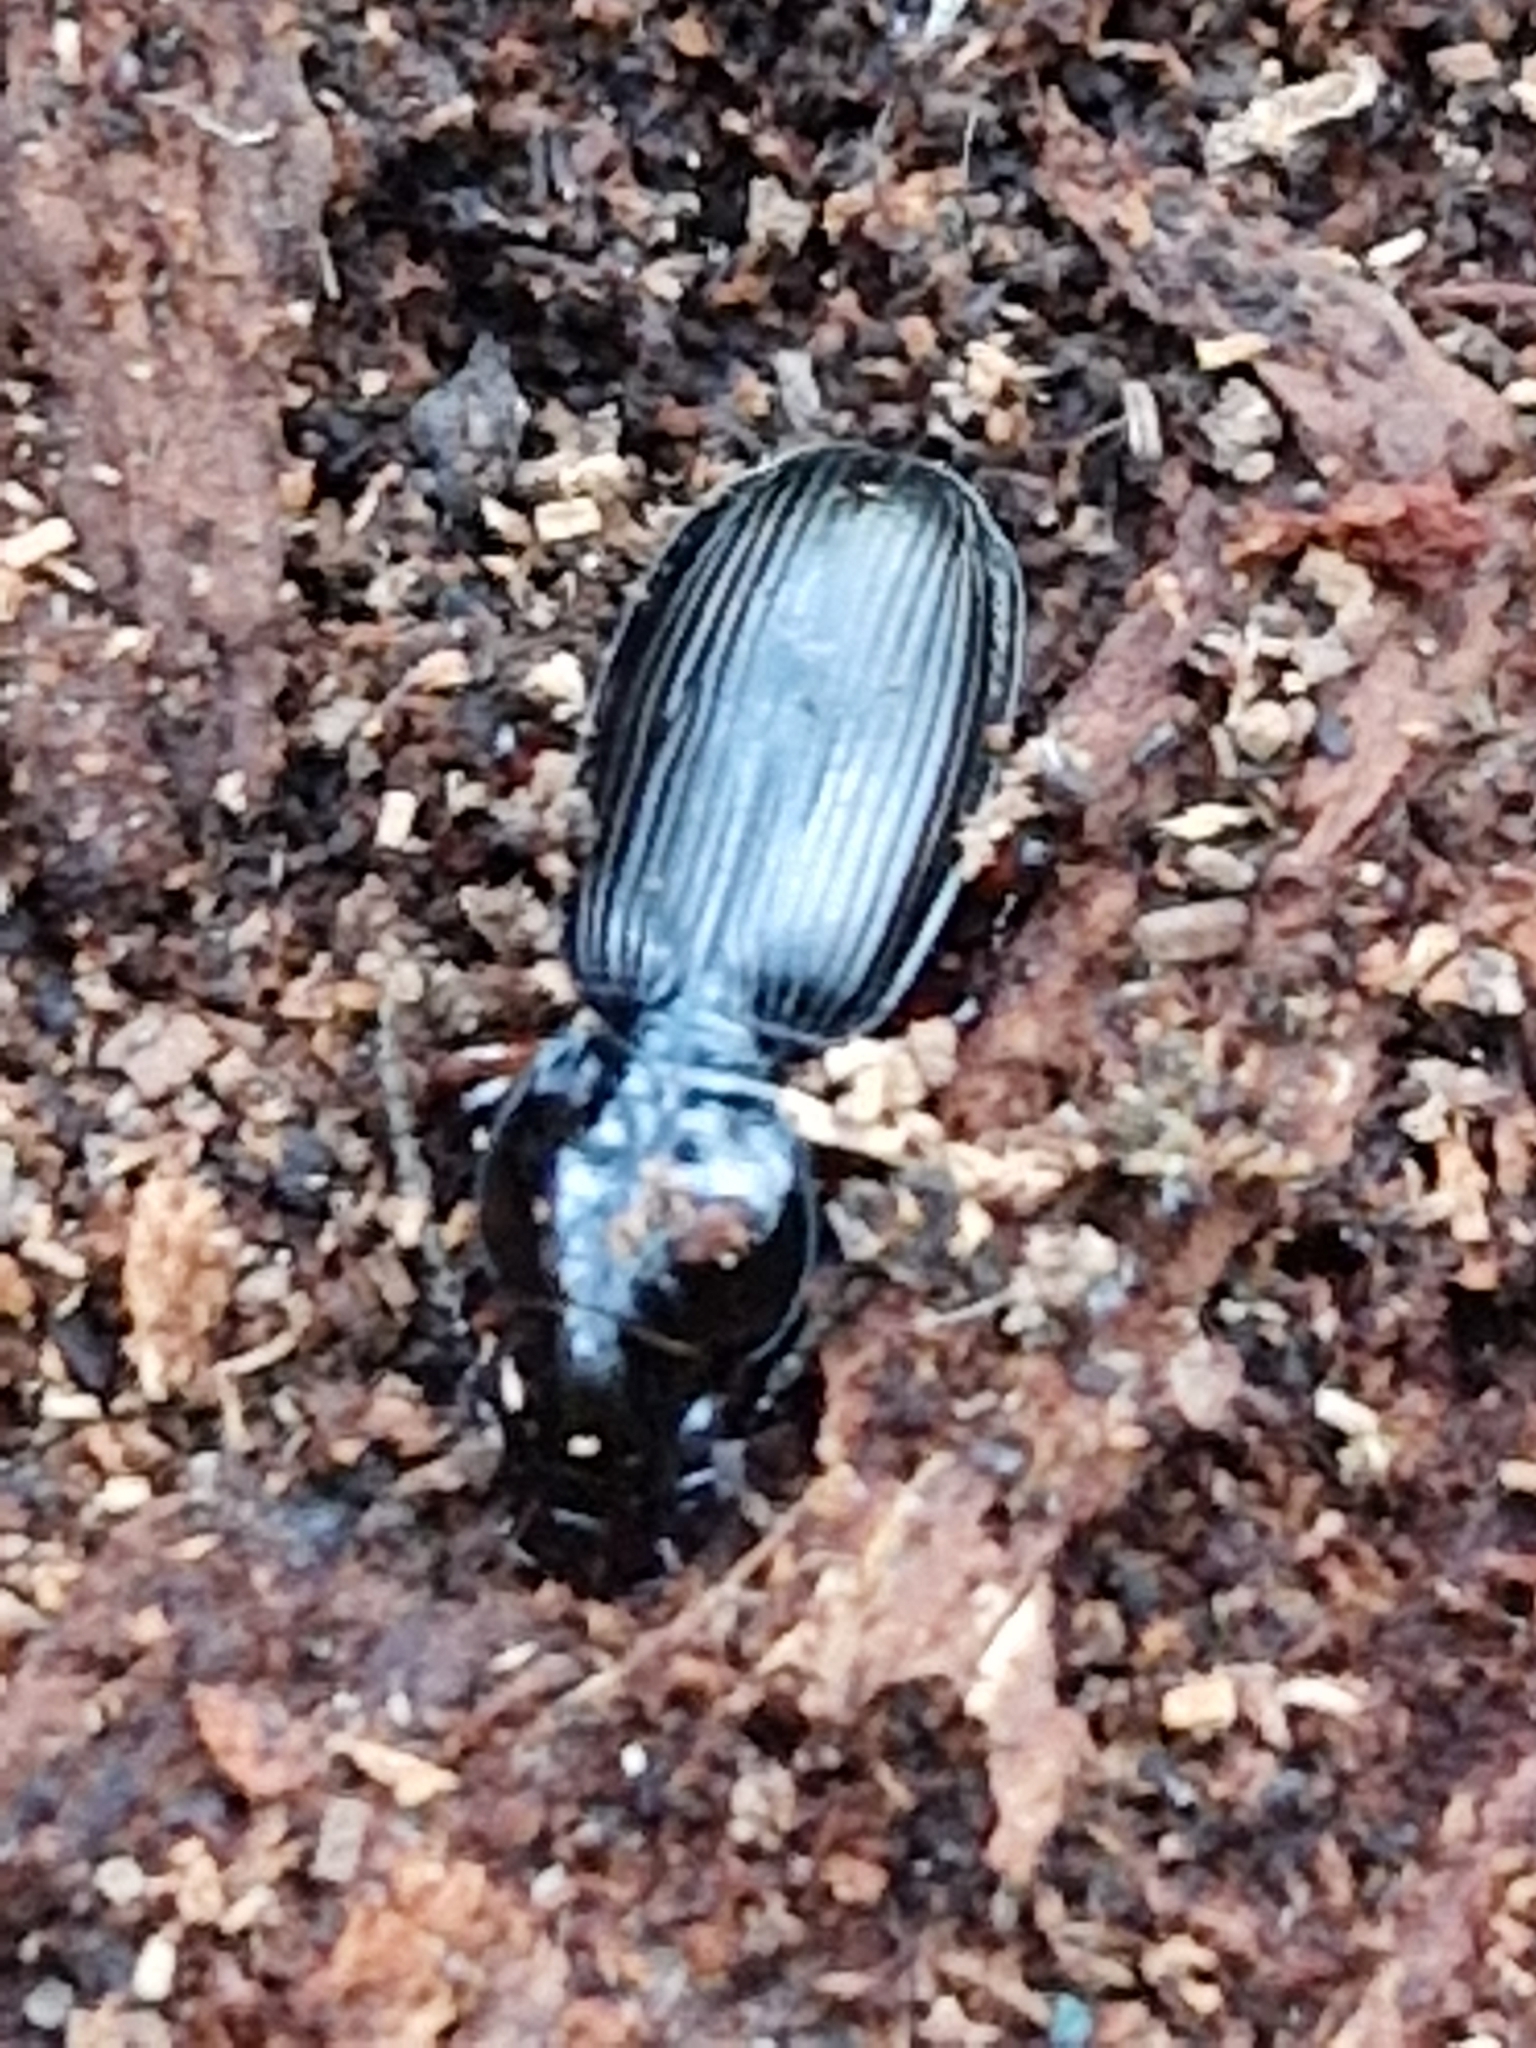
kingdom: Animalia
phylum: Arthropoda
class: Insecta
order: Coleoptera
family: Carabidae
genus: Pterostichus
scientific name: Pterostichus madidus
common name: Black clock
